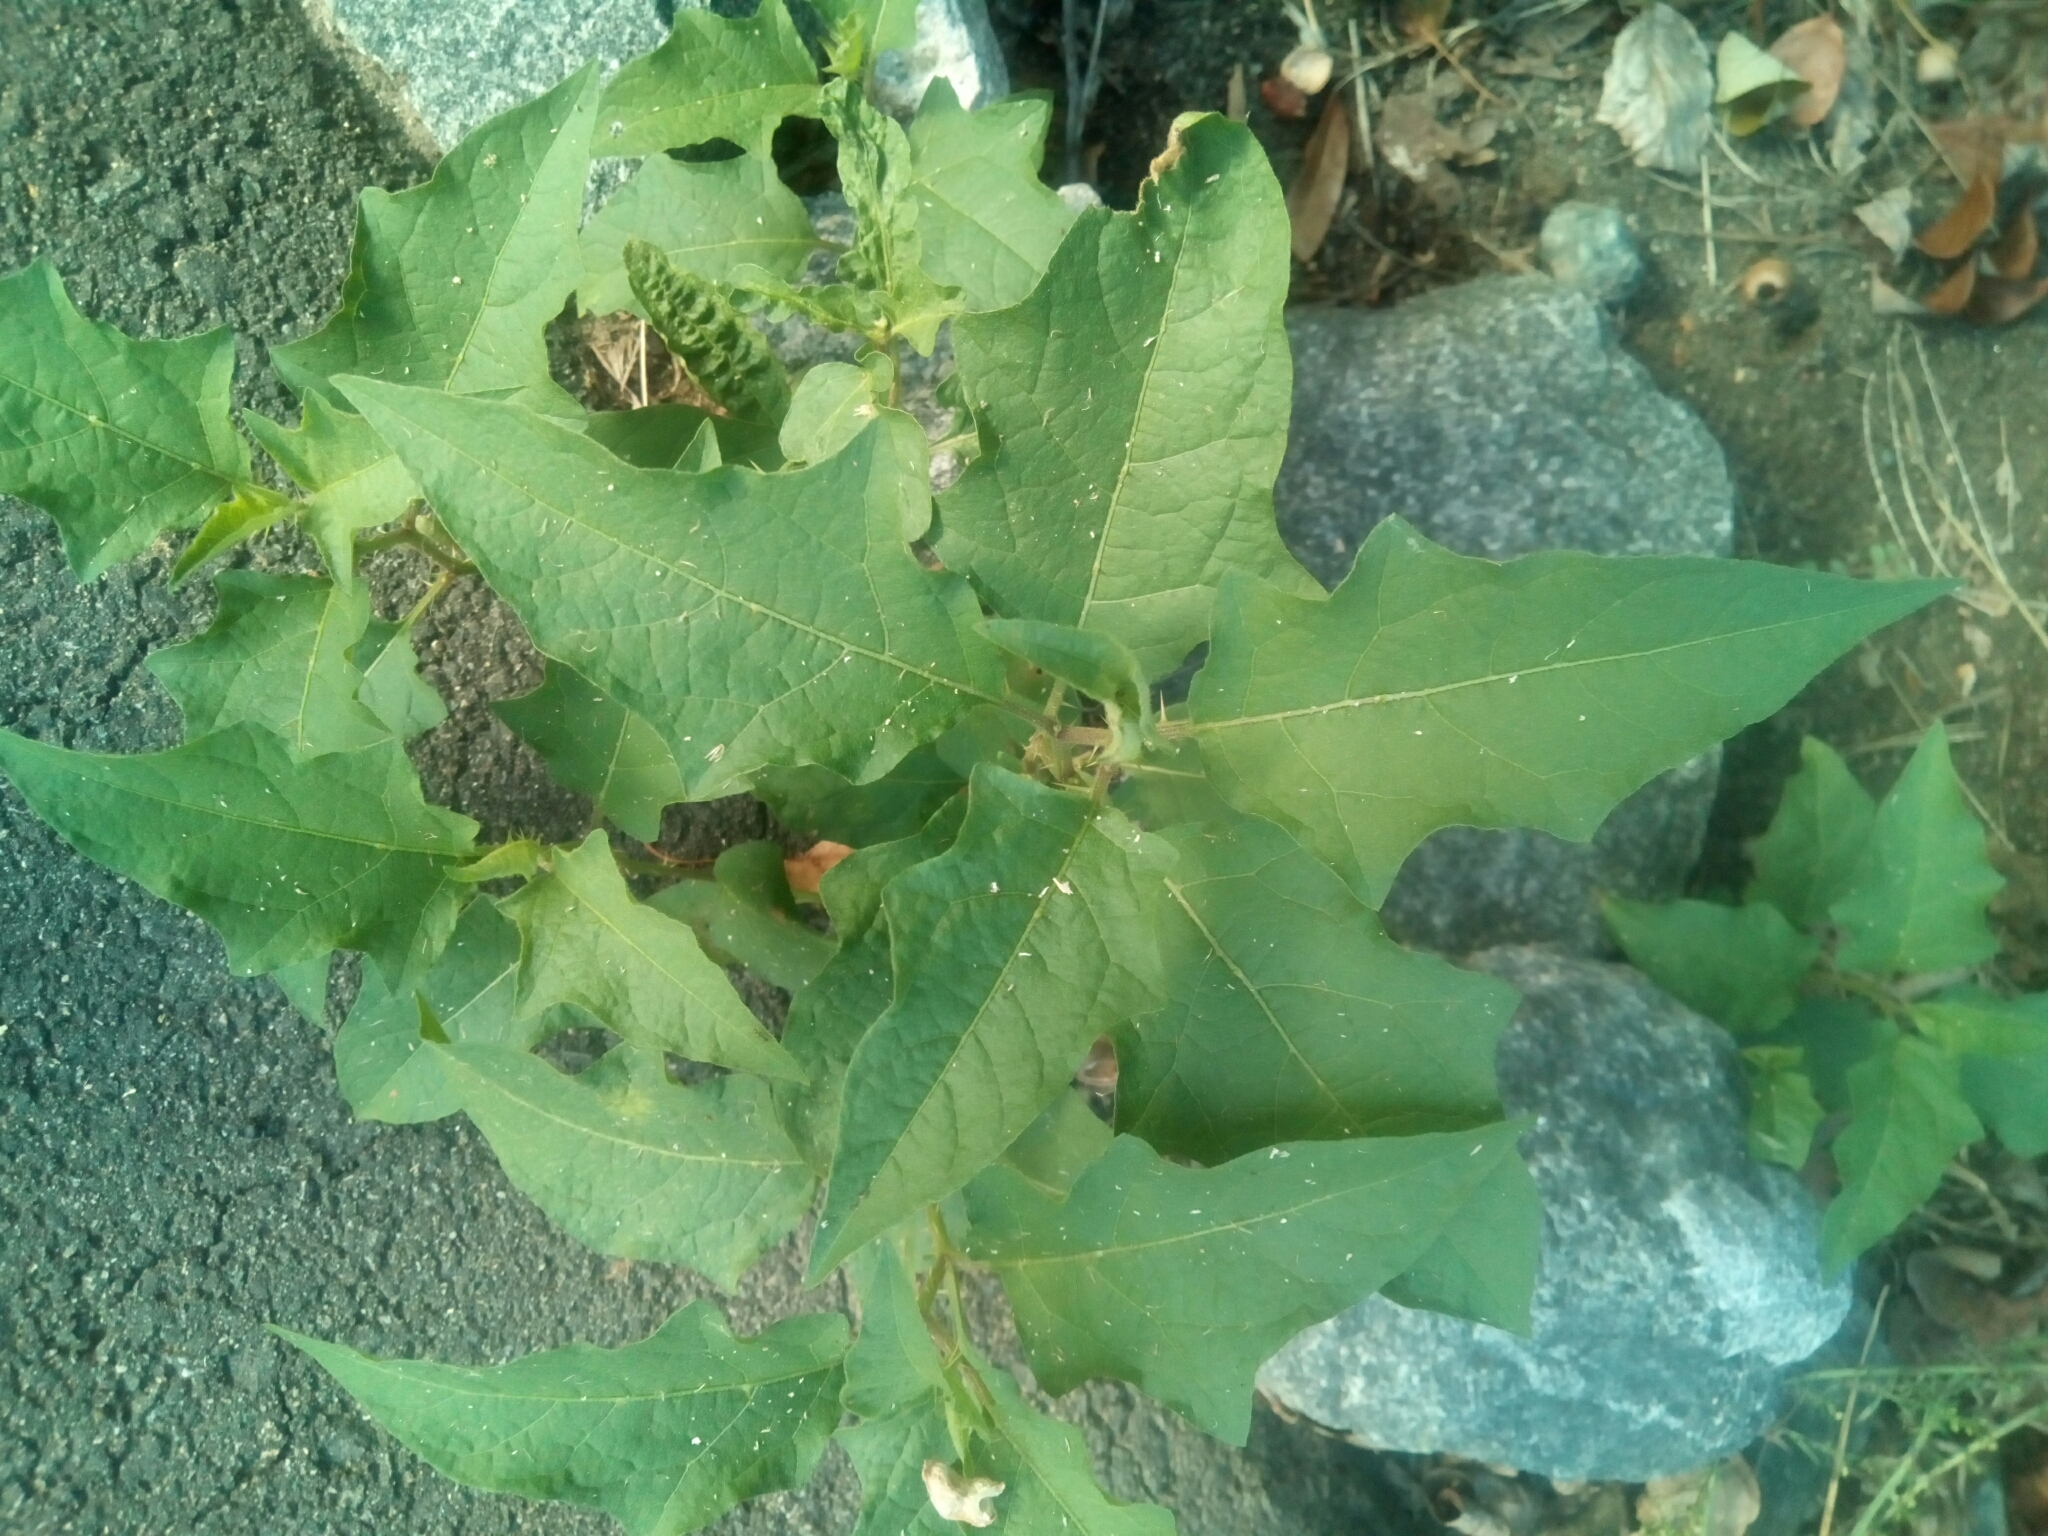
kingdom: Plantae
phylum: Tracheophyta
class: Magnoliopsida
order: Solanales
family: Solanaceae
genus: Solanum
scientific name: Solanum carolinense
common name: Horse-nettle
